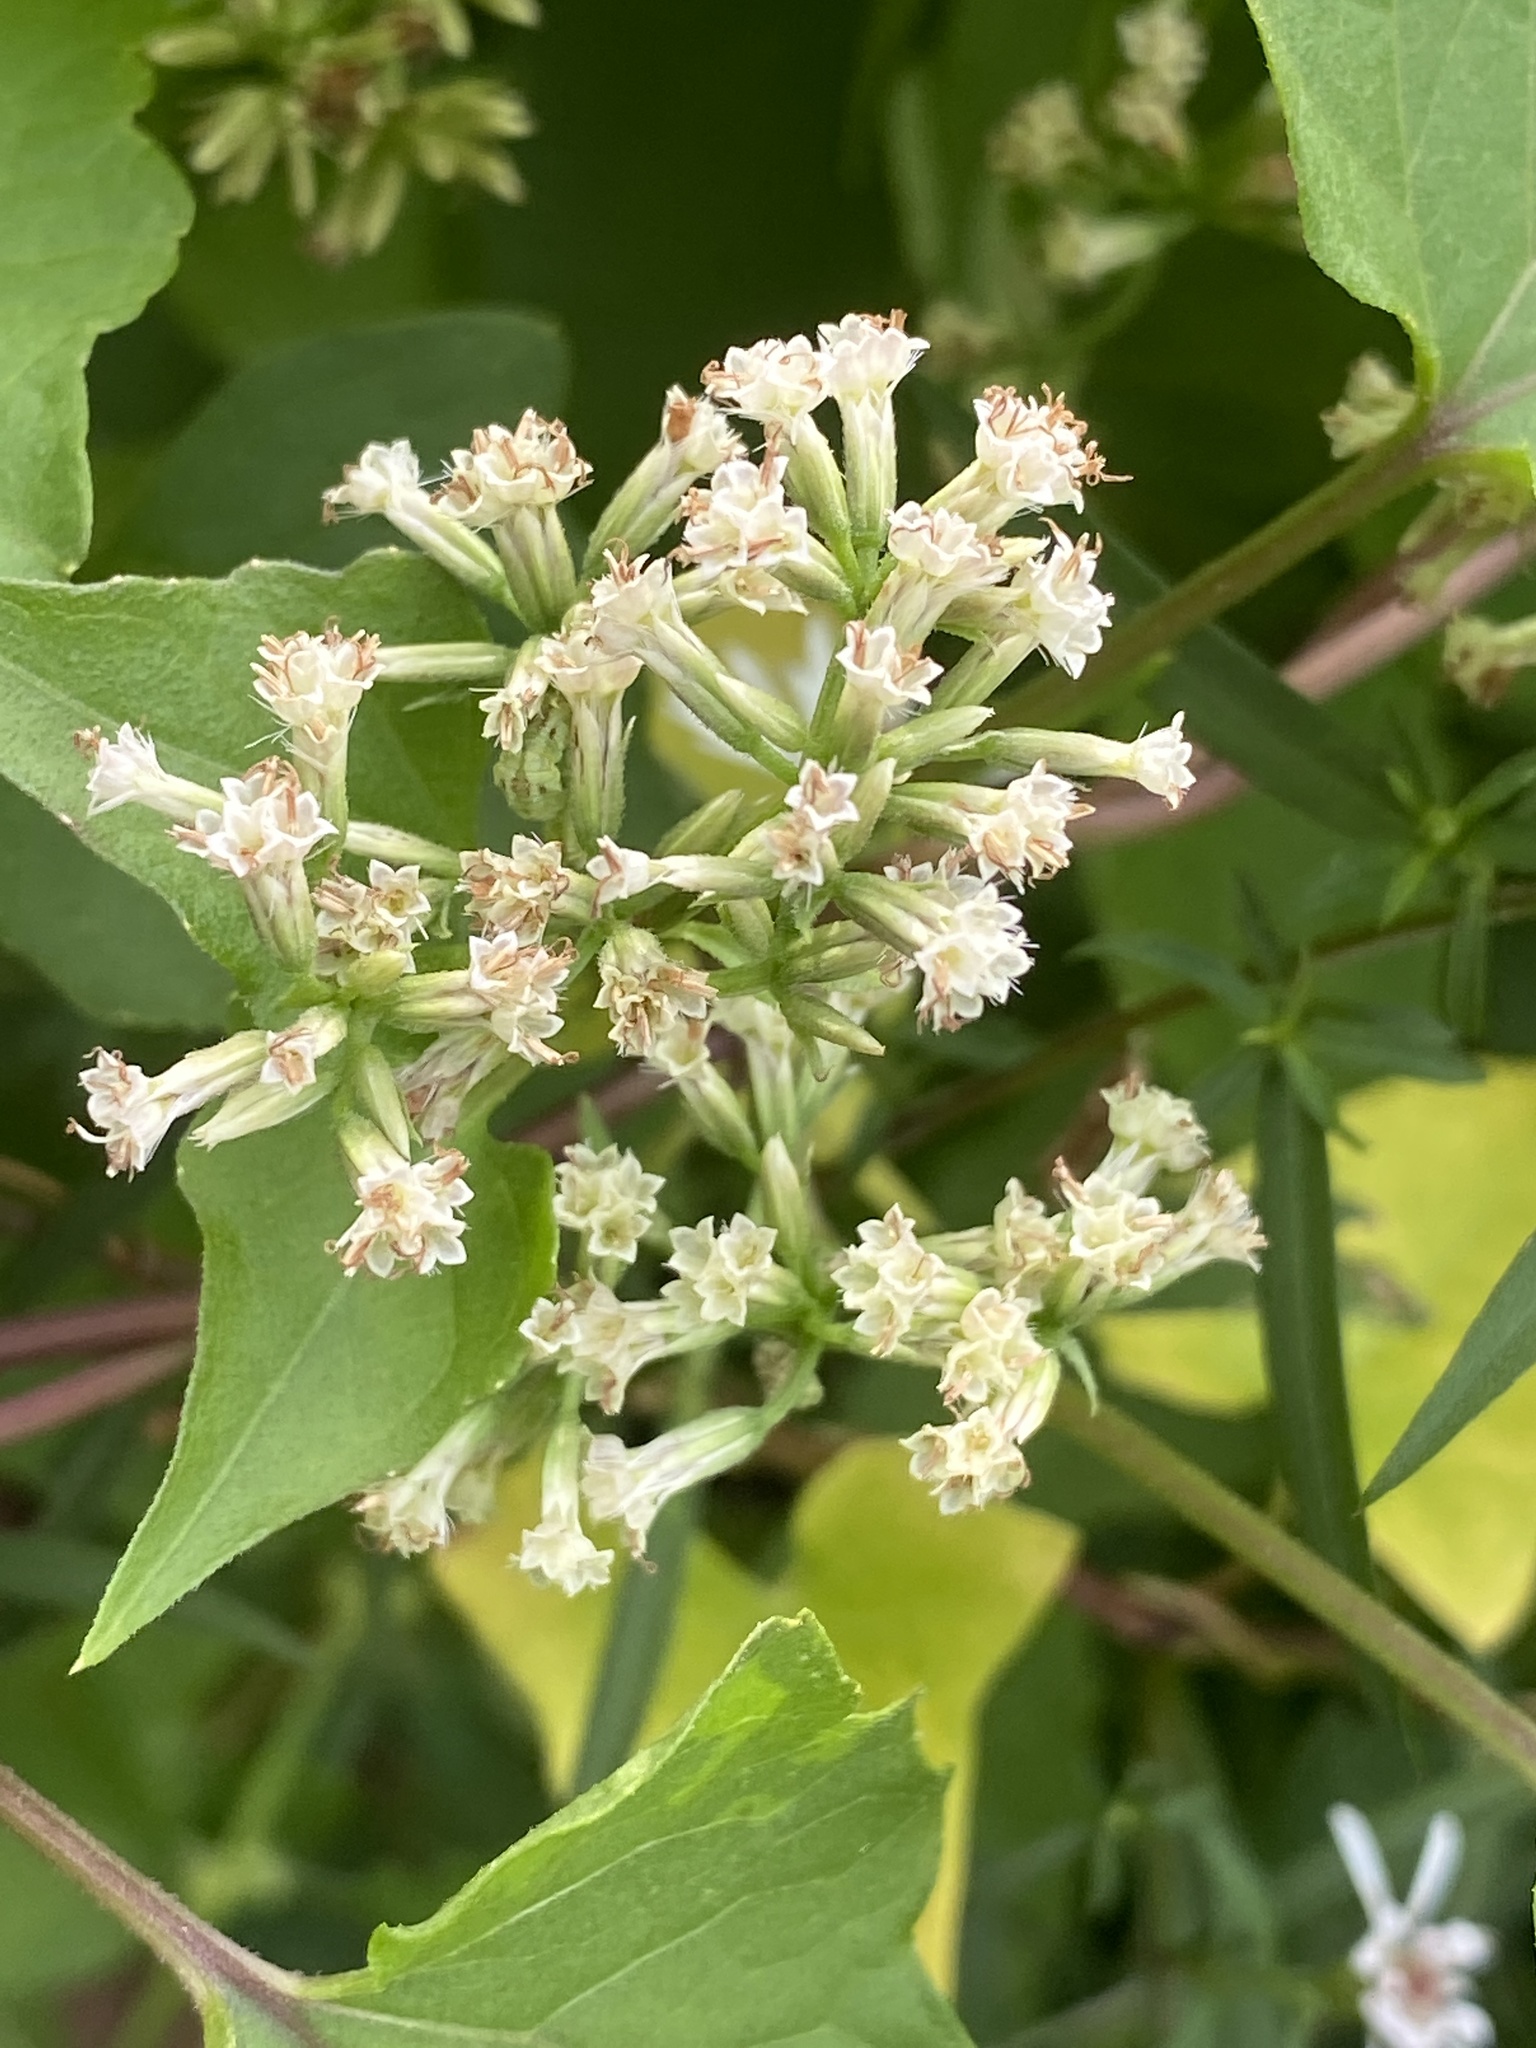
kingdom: Plantae
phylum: Tracheophyta
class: Magnoliopsida
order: Asterales
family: Asteraceae
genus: Mikania
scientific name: Mikania scandens
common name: Climbing hempvine
